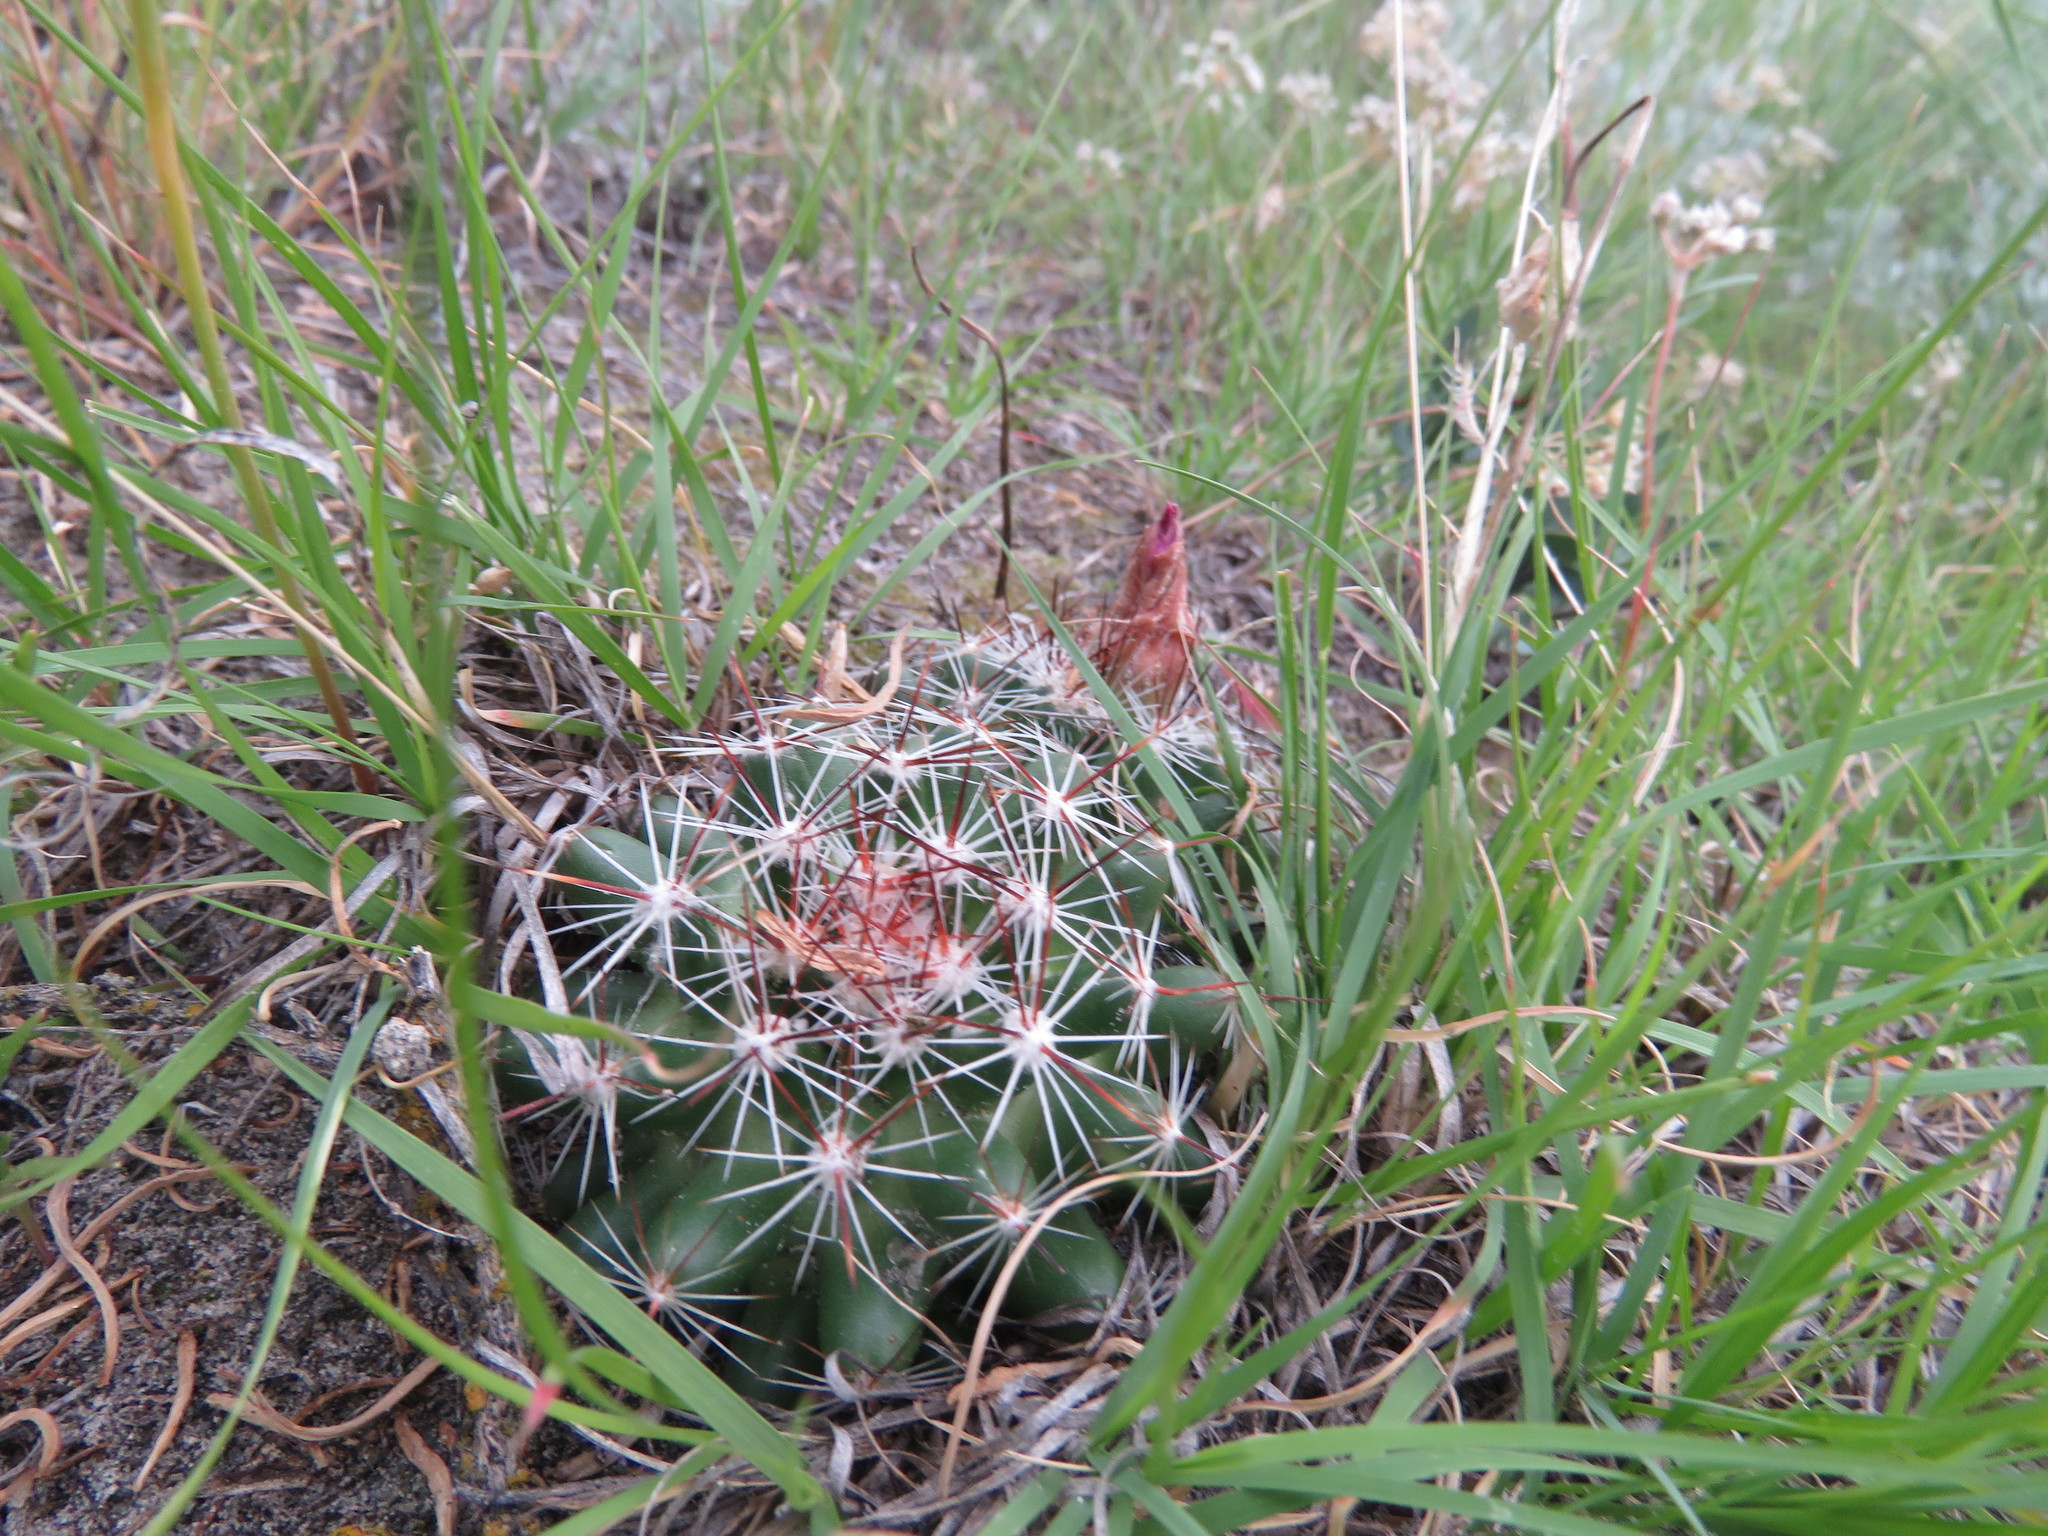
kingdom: Plantae
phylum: Tracheophyta
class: Magnoliopsida
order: Caryophyllales
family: Cactaceae
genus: Pelecyphora
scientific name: Pelecyphora vivipara
